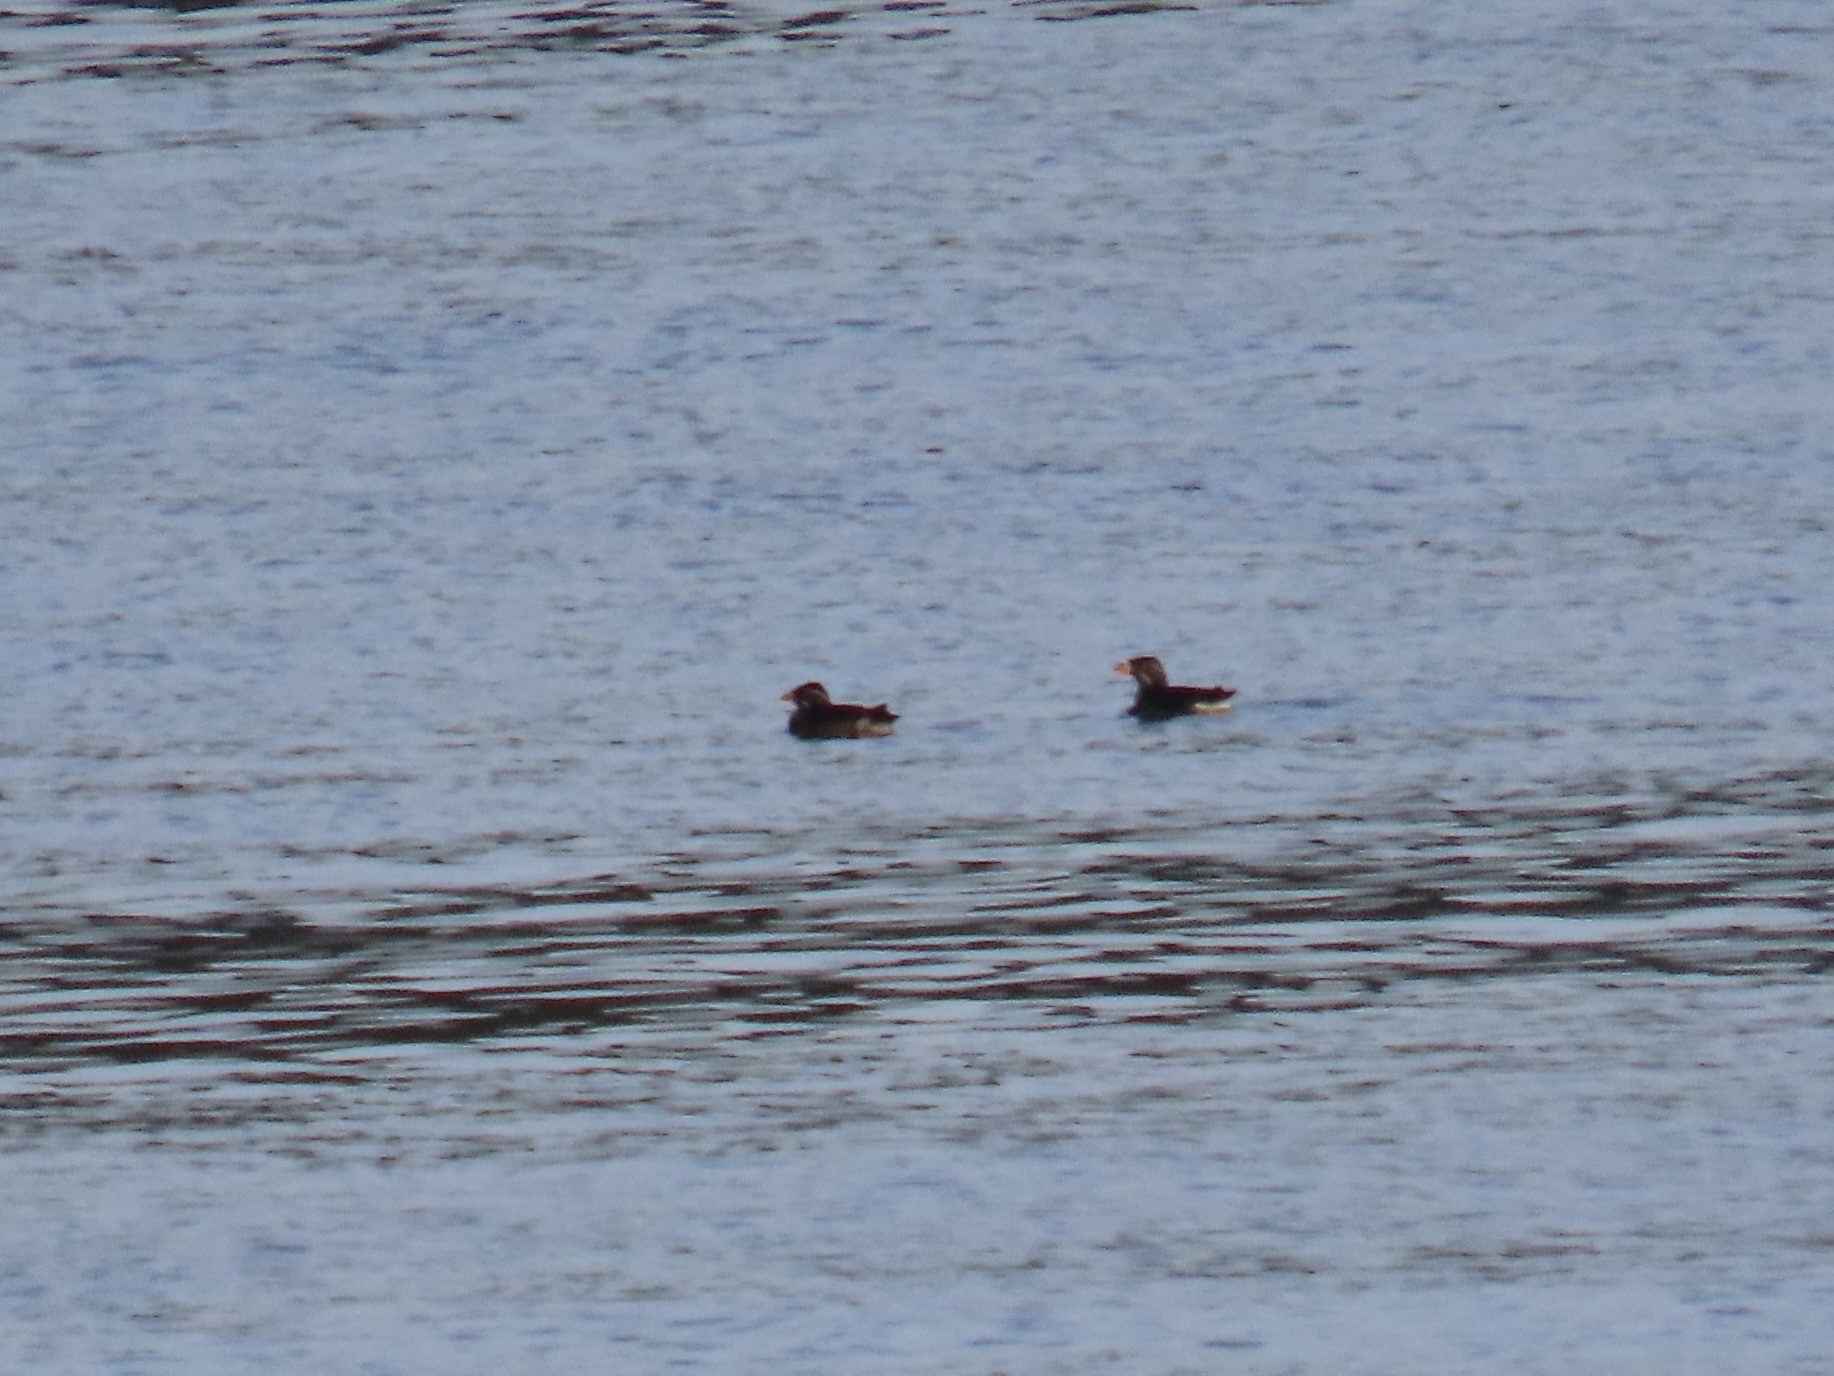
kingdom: Animalia
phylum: Chordata
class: Aves
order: Charadriiformes
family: Alcidae
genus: Cerorhinca
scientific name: Cerorhinca monocerata
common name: Rhinoceros auklet
